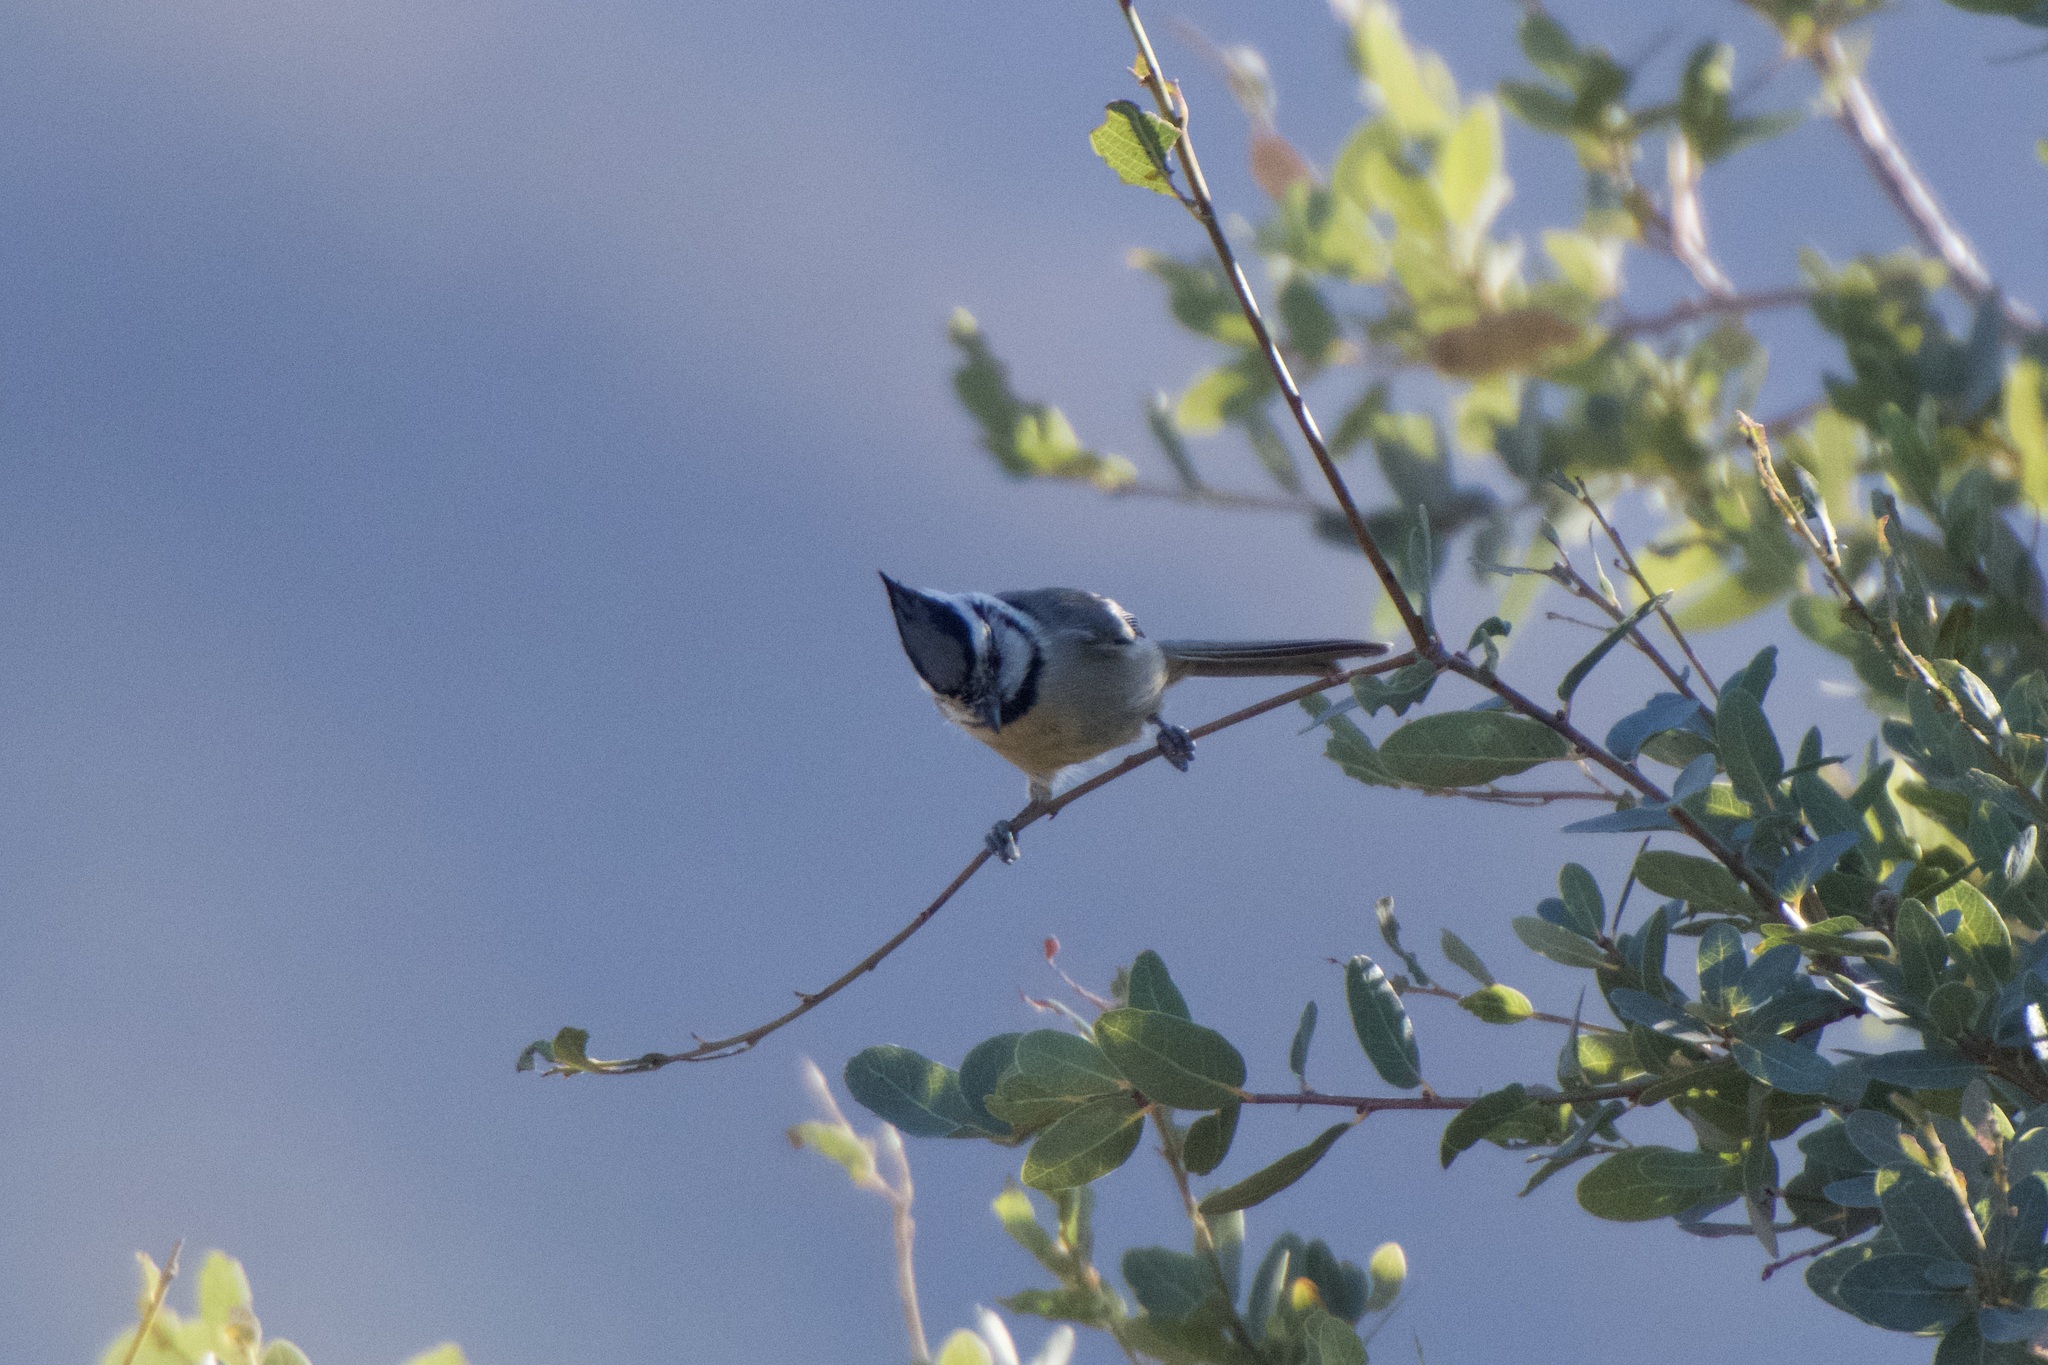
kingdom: Animalia
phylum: Chordata
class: Aves
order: Passeriformes
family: Paridae
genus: Baeolophus
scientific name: Baeolophus wollweberi
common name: Bridled titmouse
